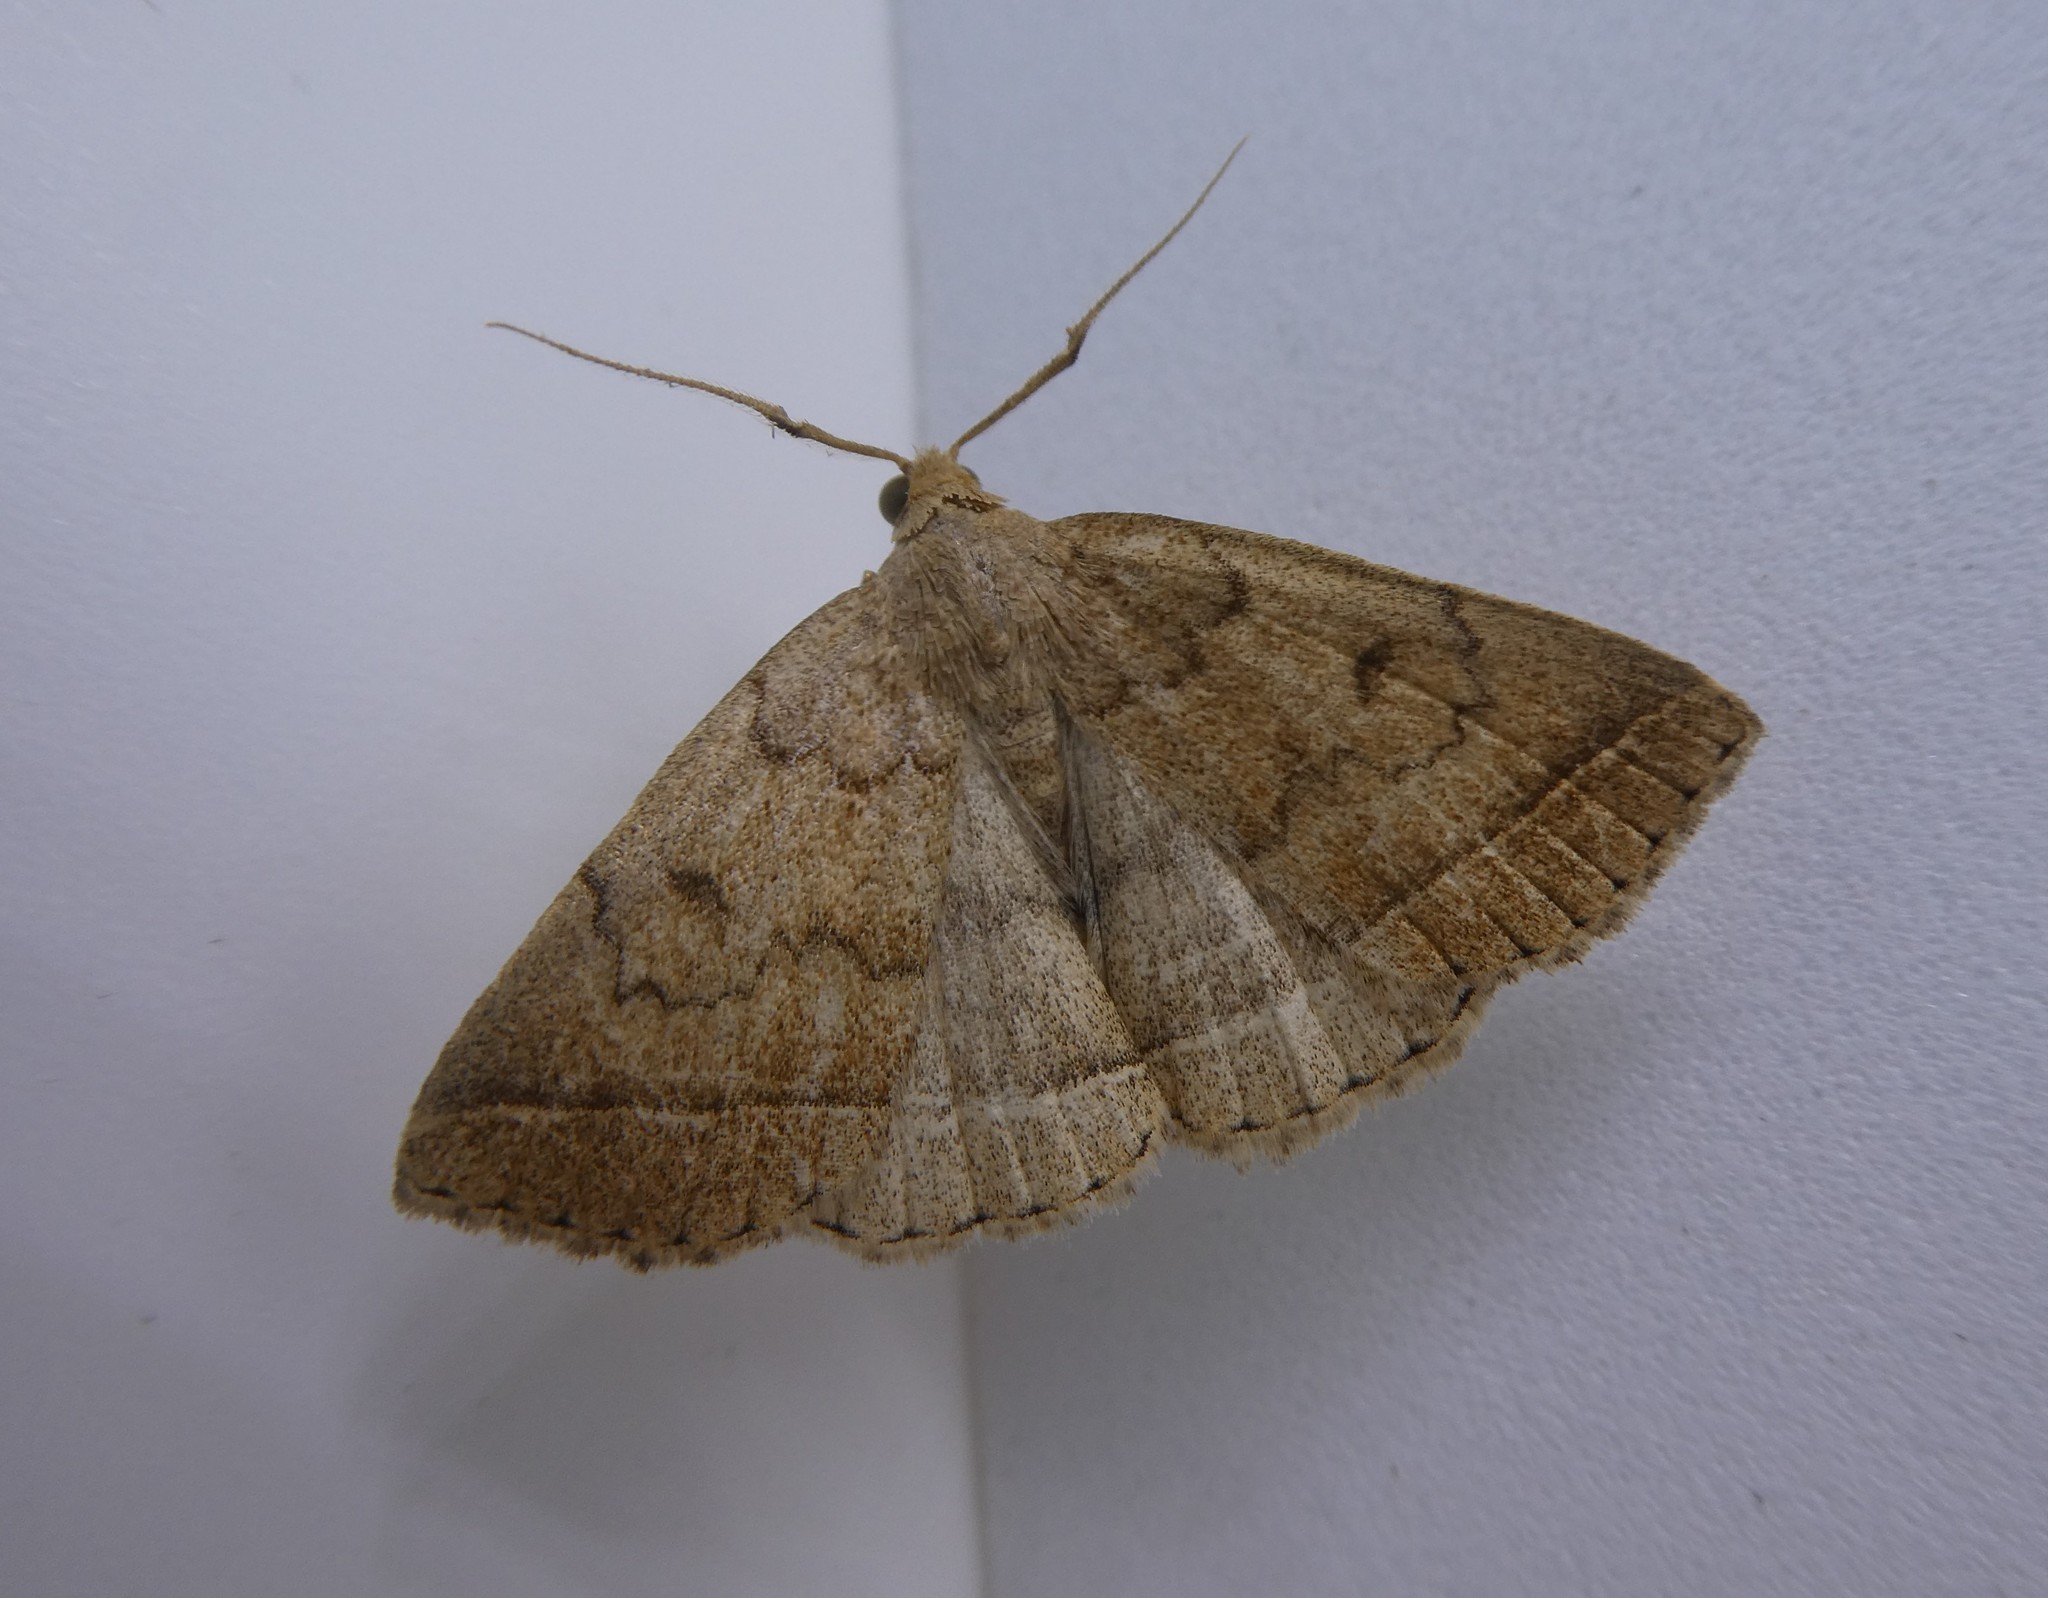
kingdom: Animalia
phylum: Arthropoda
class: Insecta
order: Lepidoptera
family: Erebidae
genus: Zanclognatha
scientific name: Zanclognatha jacchusalis
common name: Yellowish zanclognatha
